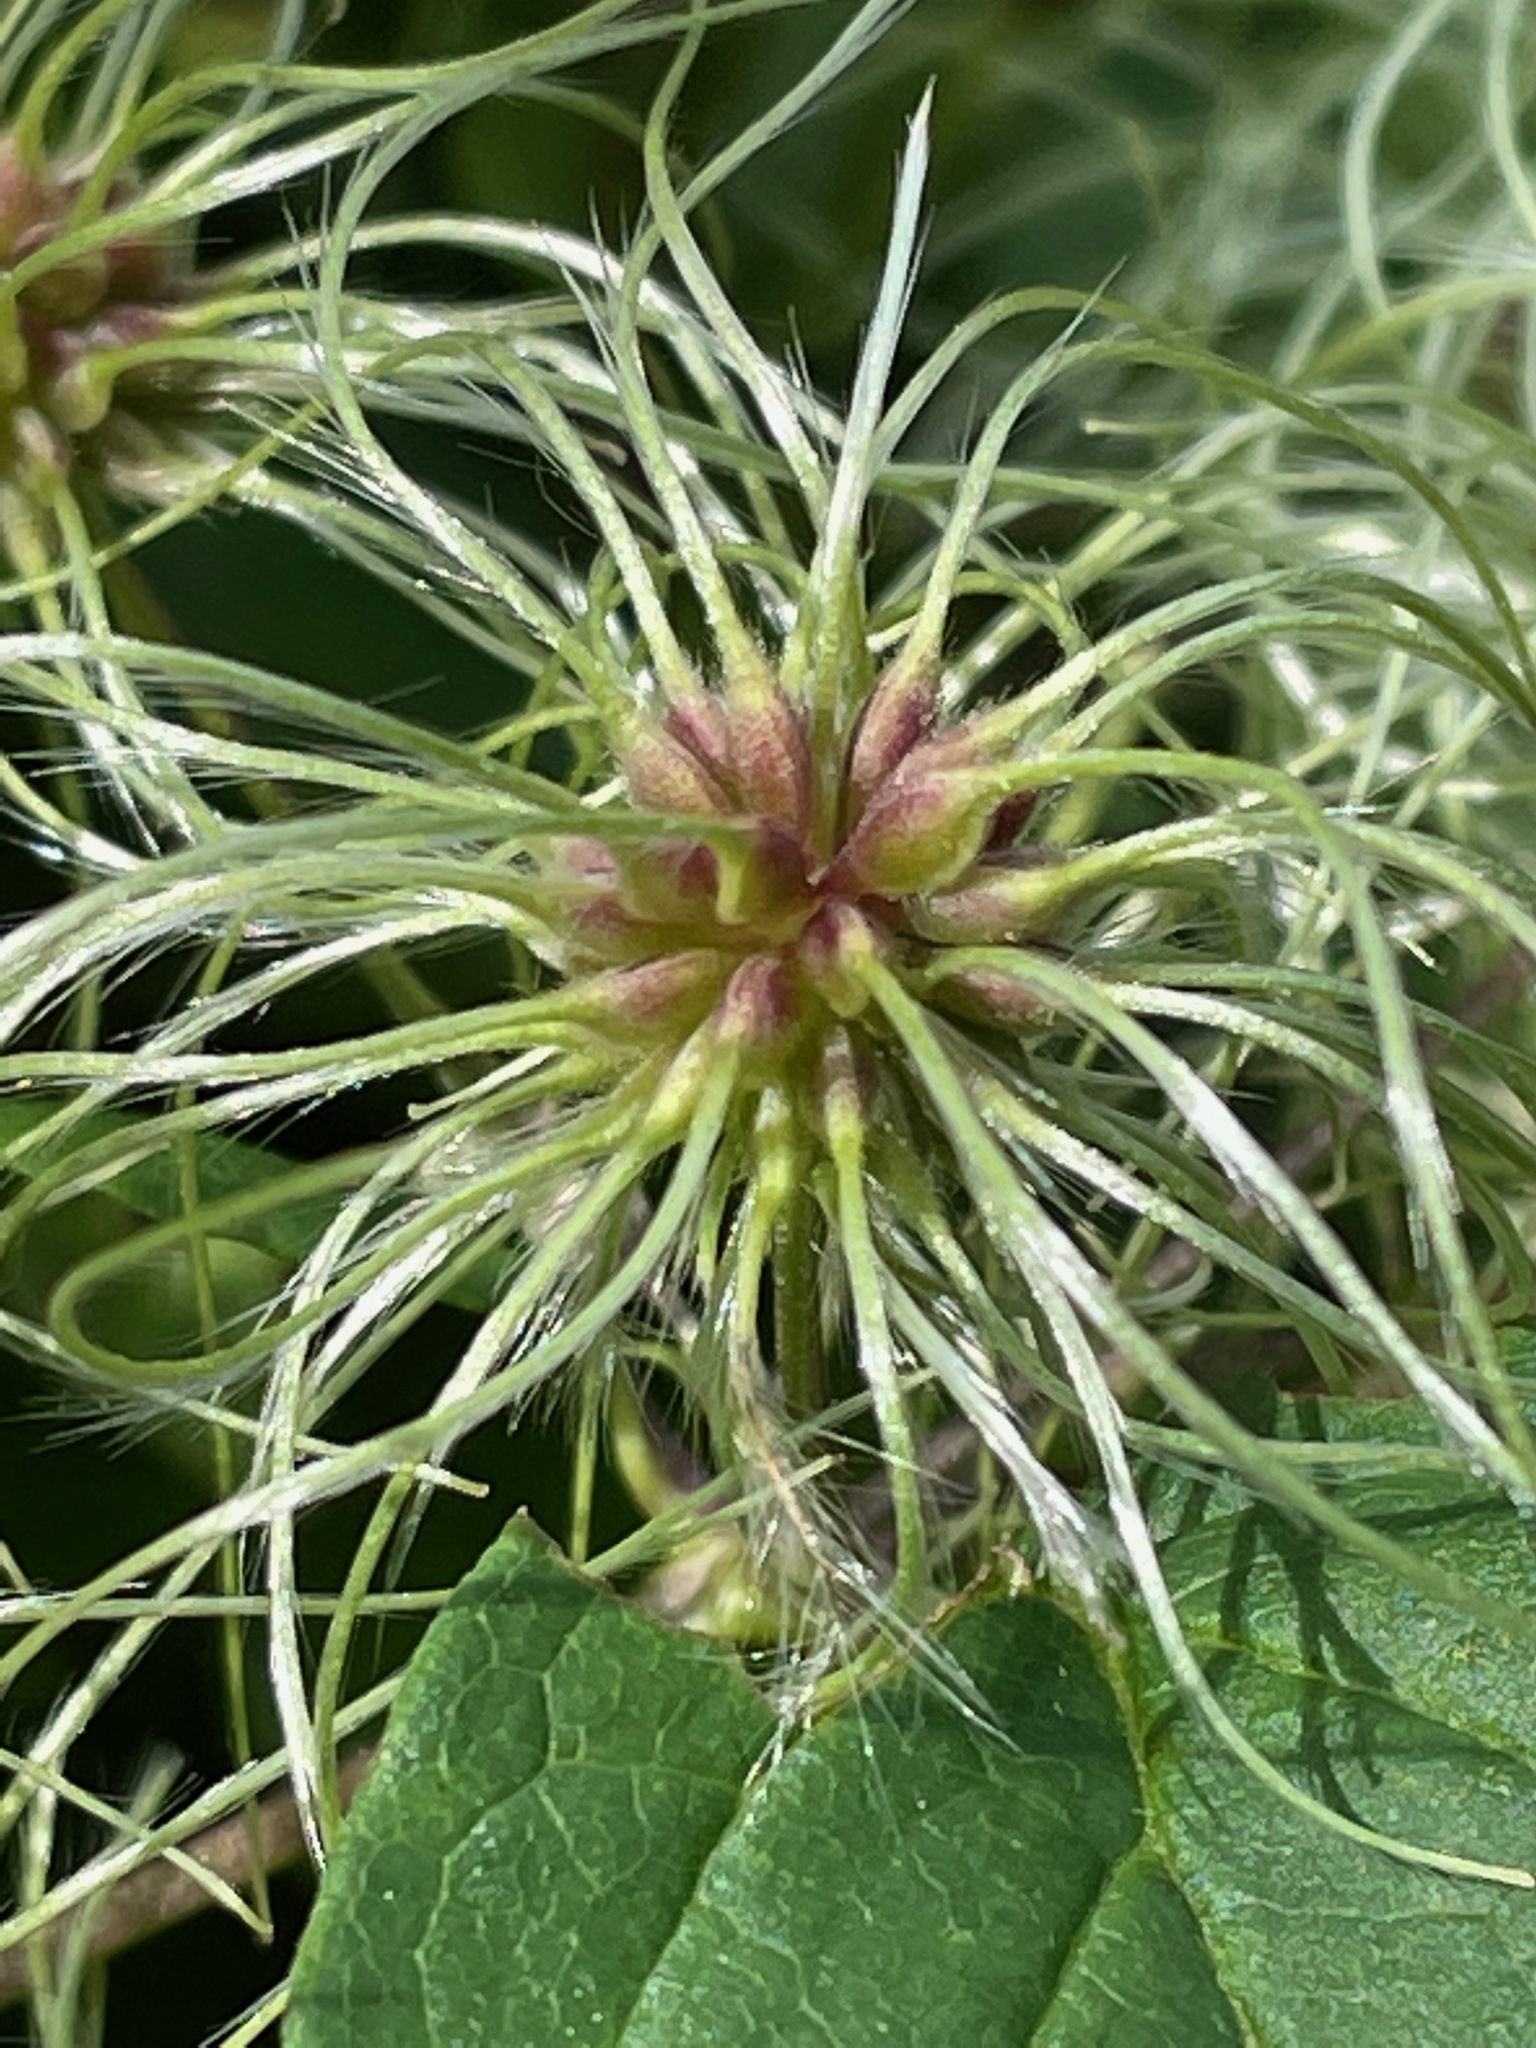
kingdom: Plantae
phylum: Tracheophyta
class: Magnoliopsida
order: Ranunculales
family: Ranunculaceae
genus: Clematis
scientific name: Clematis virginiana
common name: Virgin's-bower
